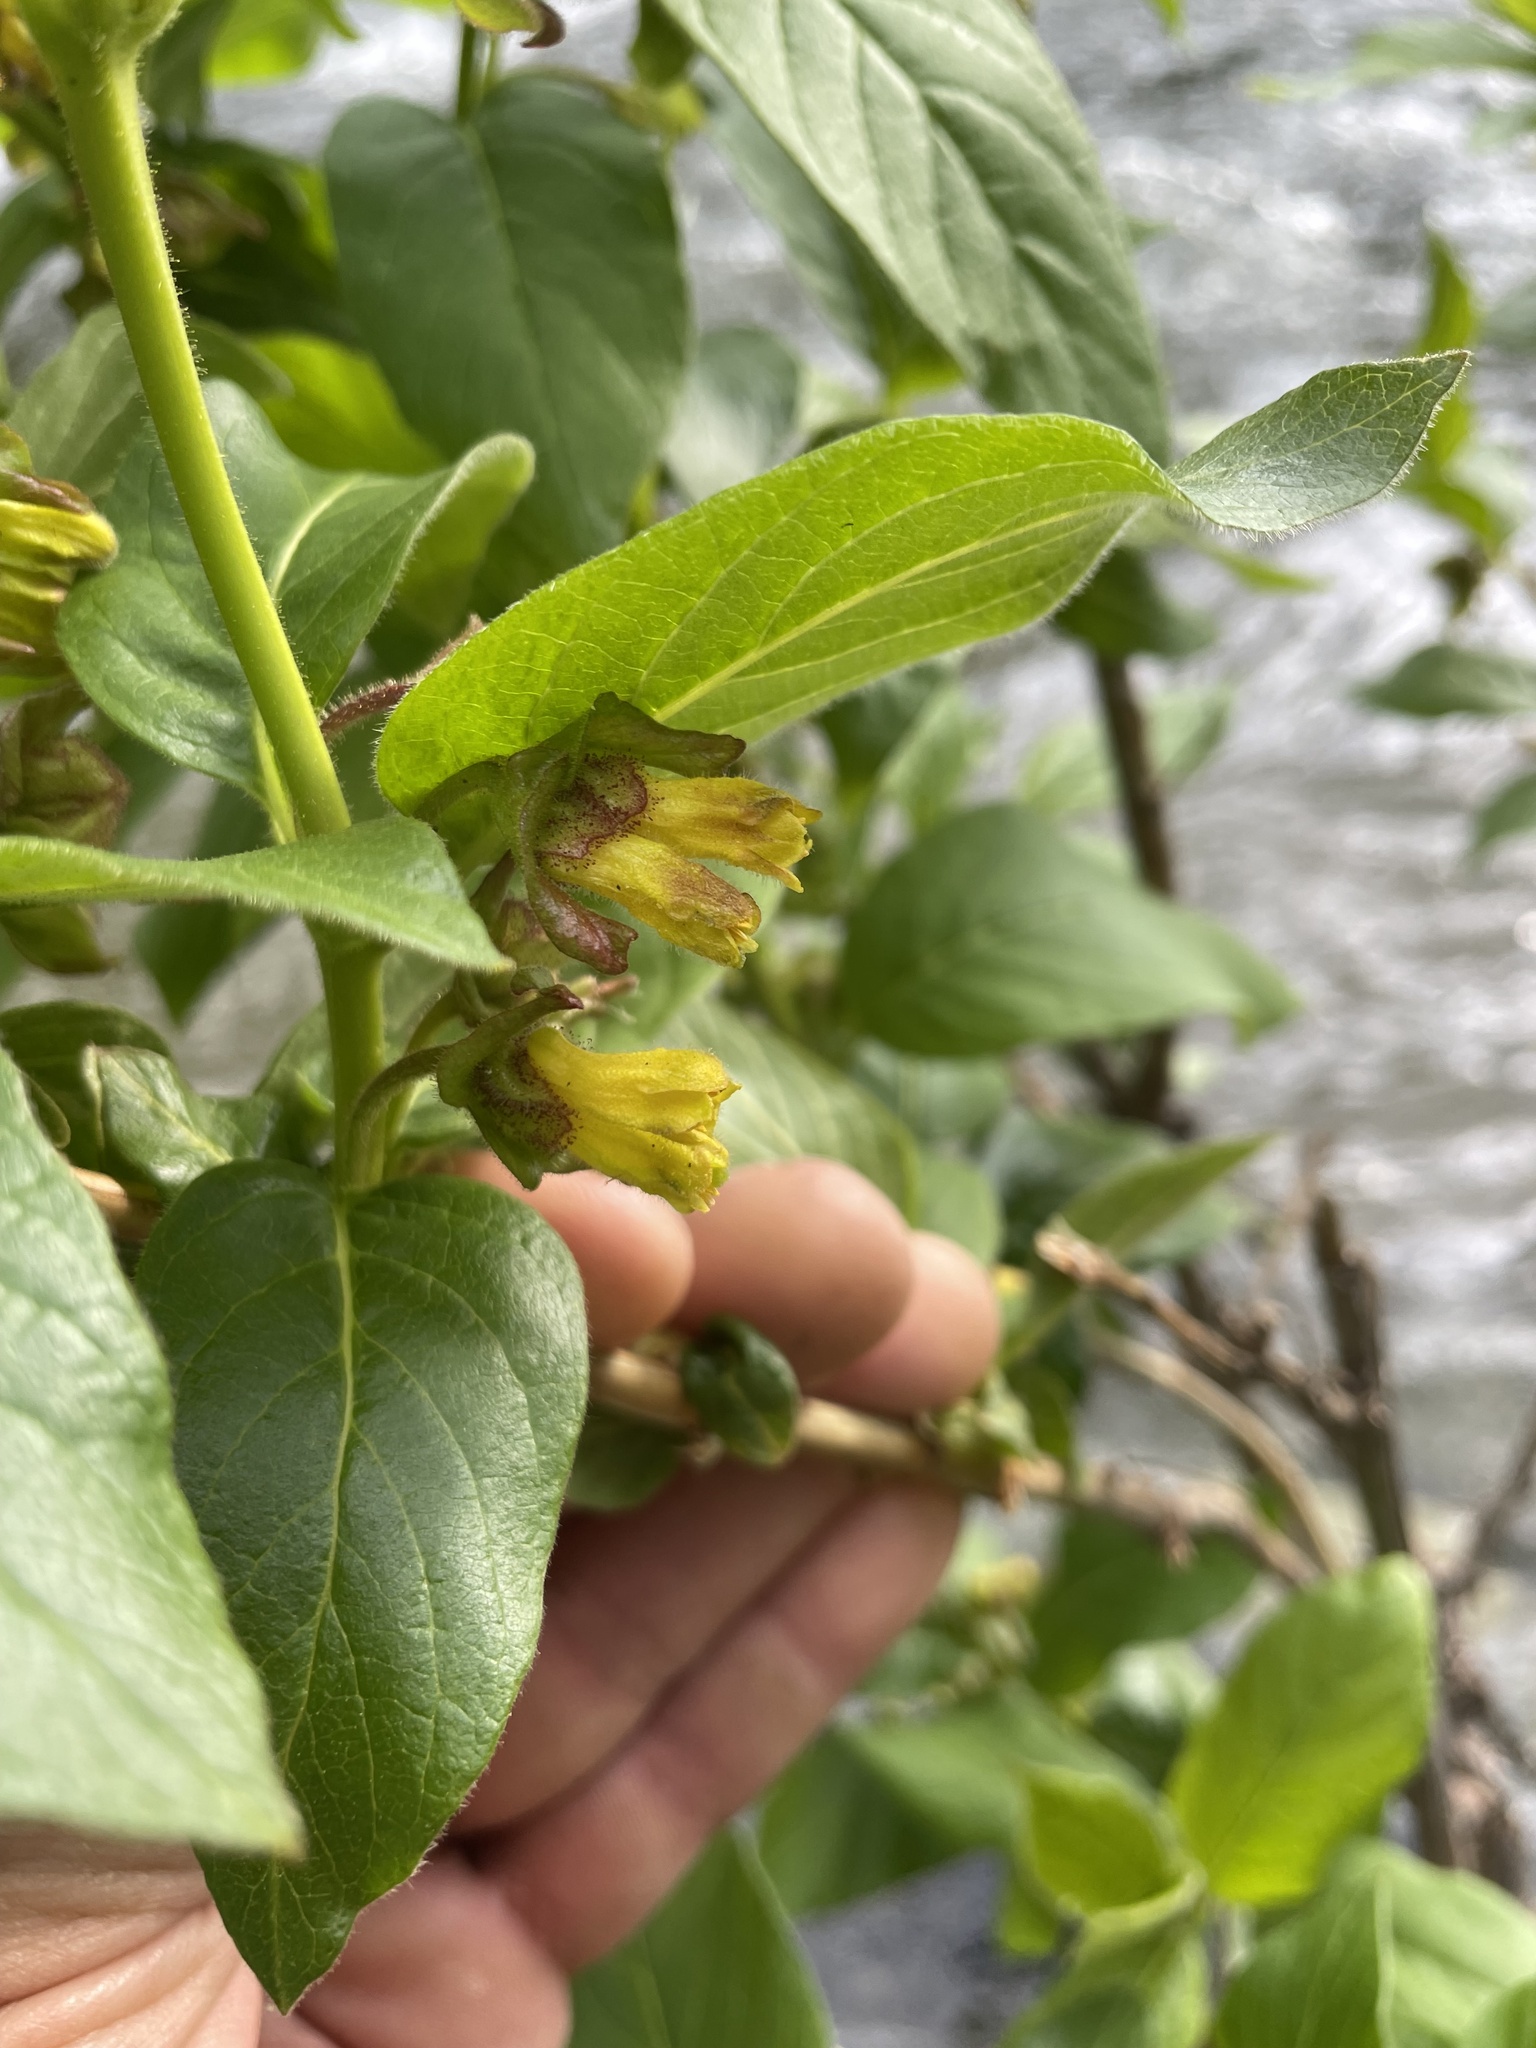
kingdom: Plantae
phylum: Tracheophyta
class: Magnoliopsida
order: Dipsacales
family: Caprifoliaceae
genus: Lonicera
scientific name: Lonicera involucrata
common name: Californian honeysuckle
